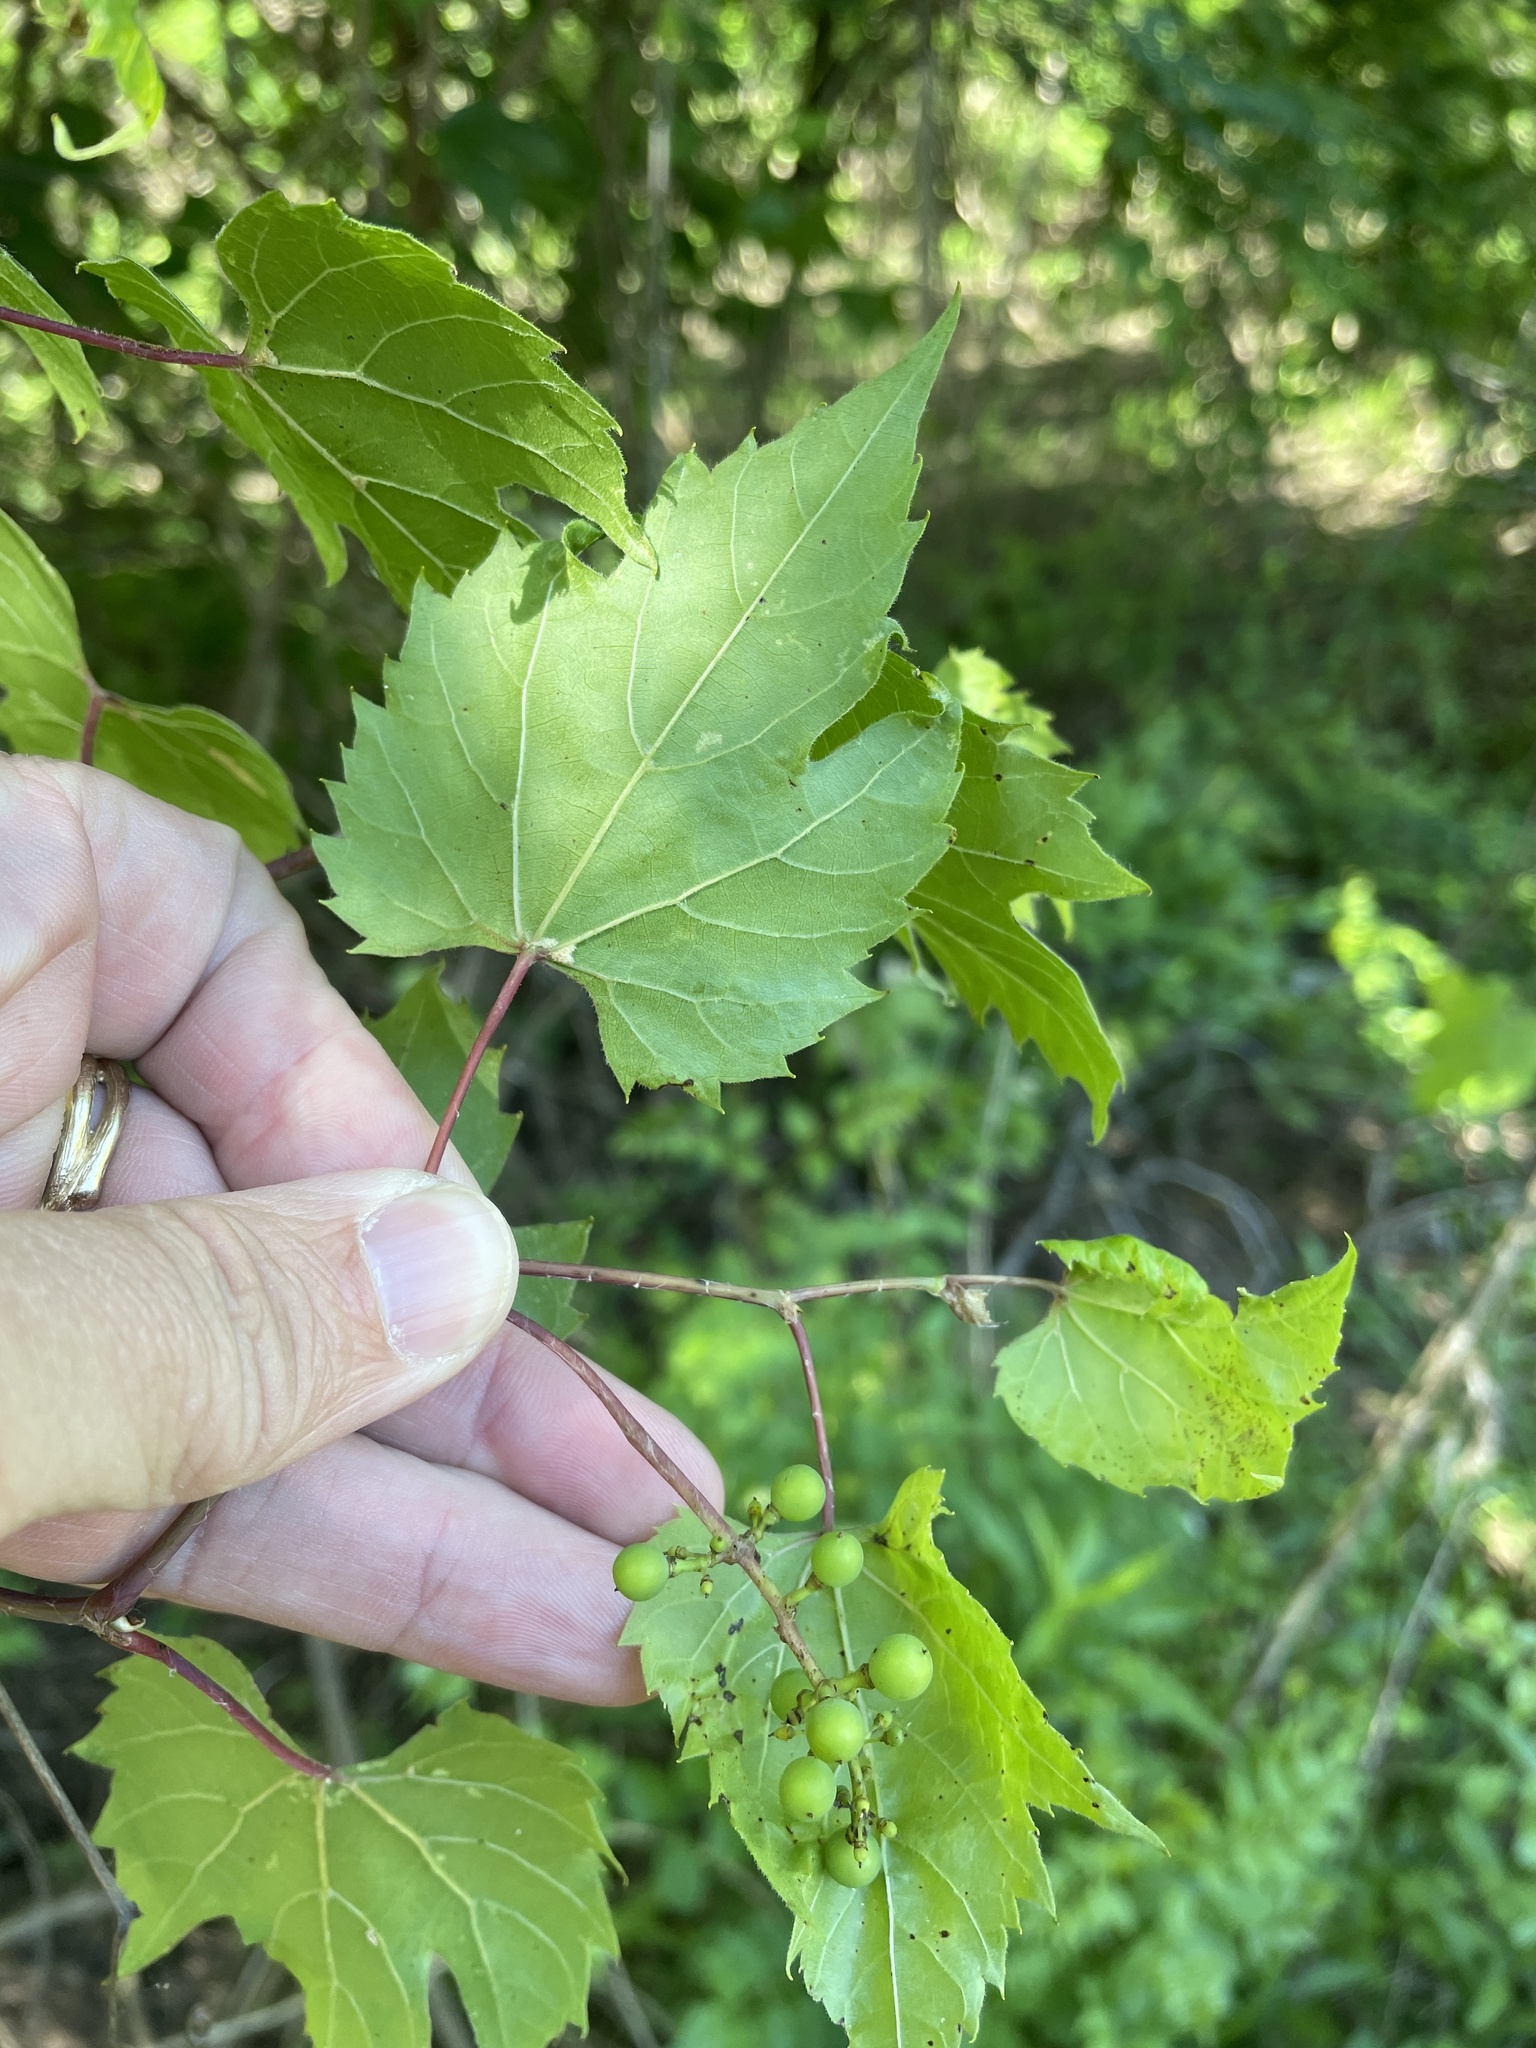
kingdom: Plantae
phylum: Tracheophyta
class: Magnoliopsida
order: Vitales
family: Vitaceae
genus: Vitis
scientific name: Vitis palmata
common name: Catbird grape
